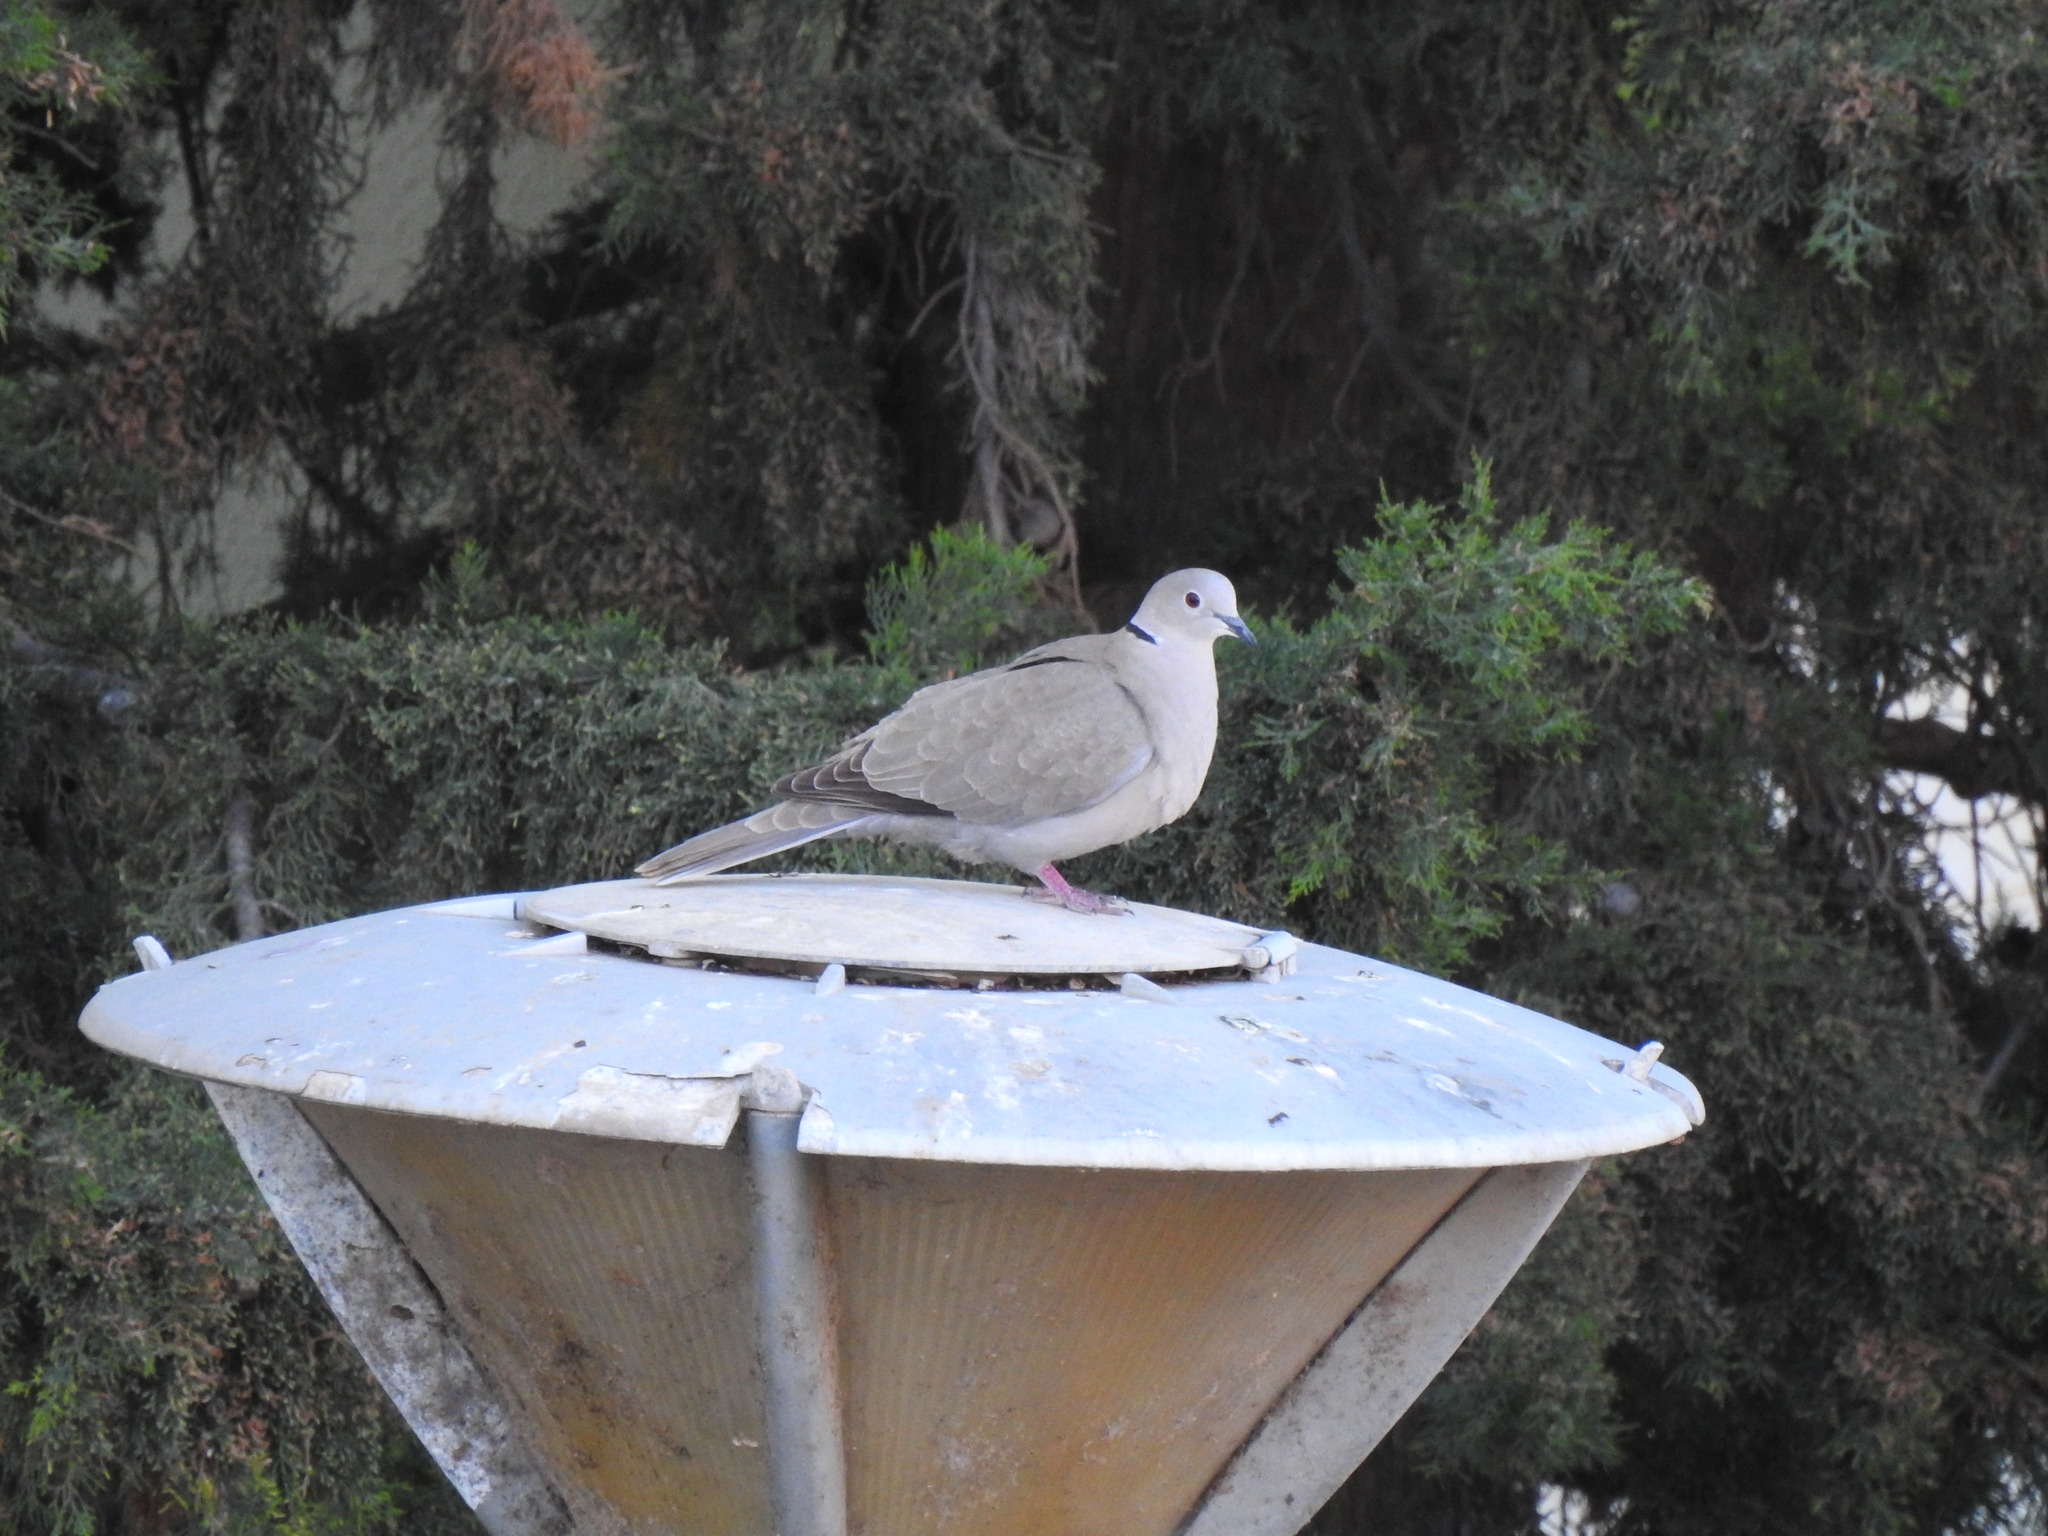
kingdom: Animalia
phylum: Chordata
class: Aves
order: Columbiformes
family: Columbidae
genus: Streptopelia
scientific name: Streptopelia decaocto
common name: Eurasian collared dove
